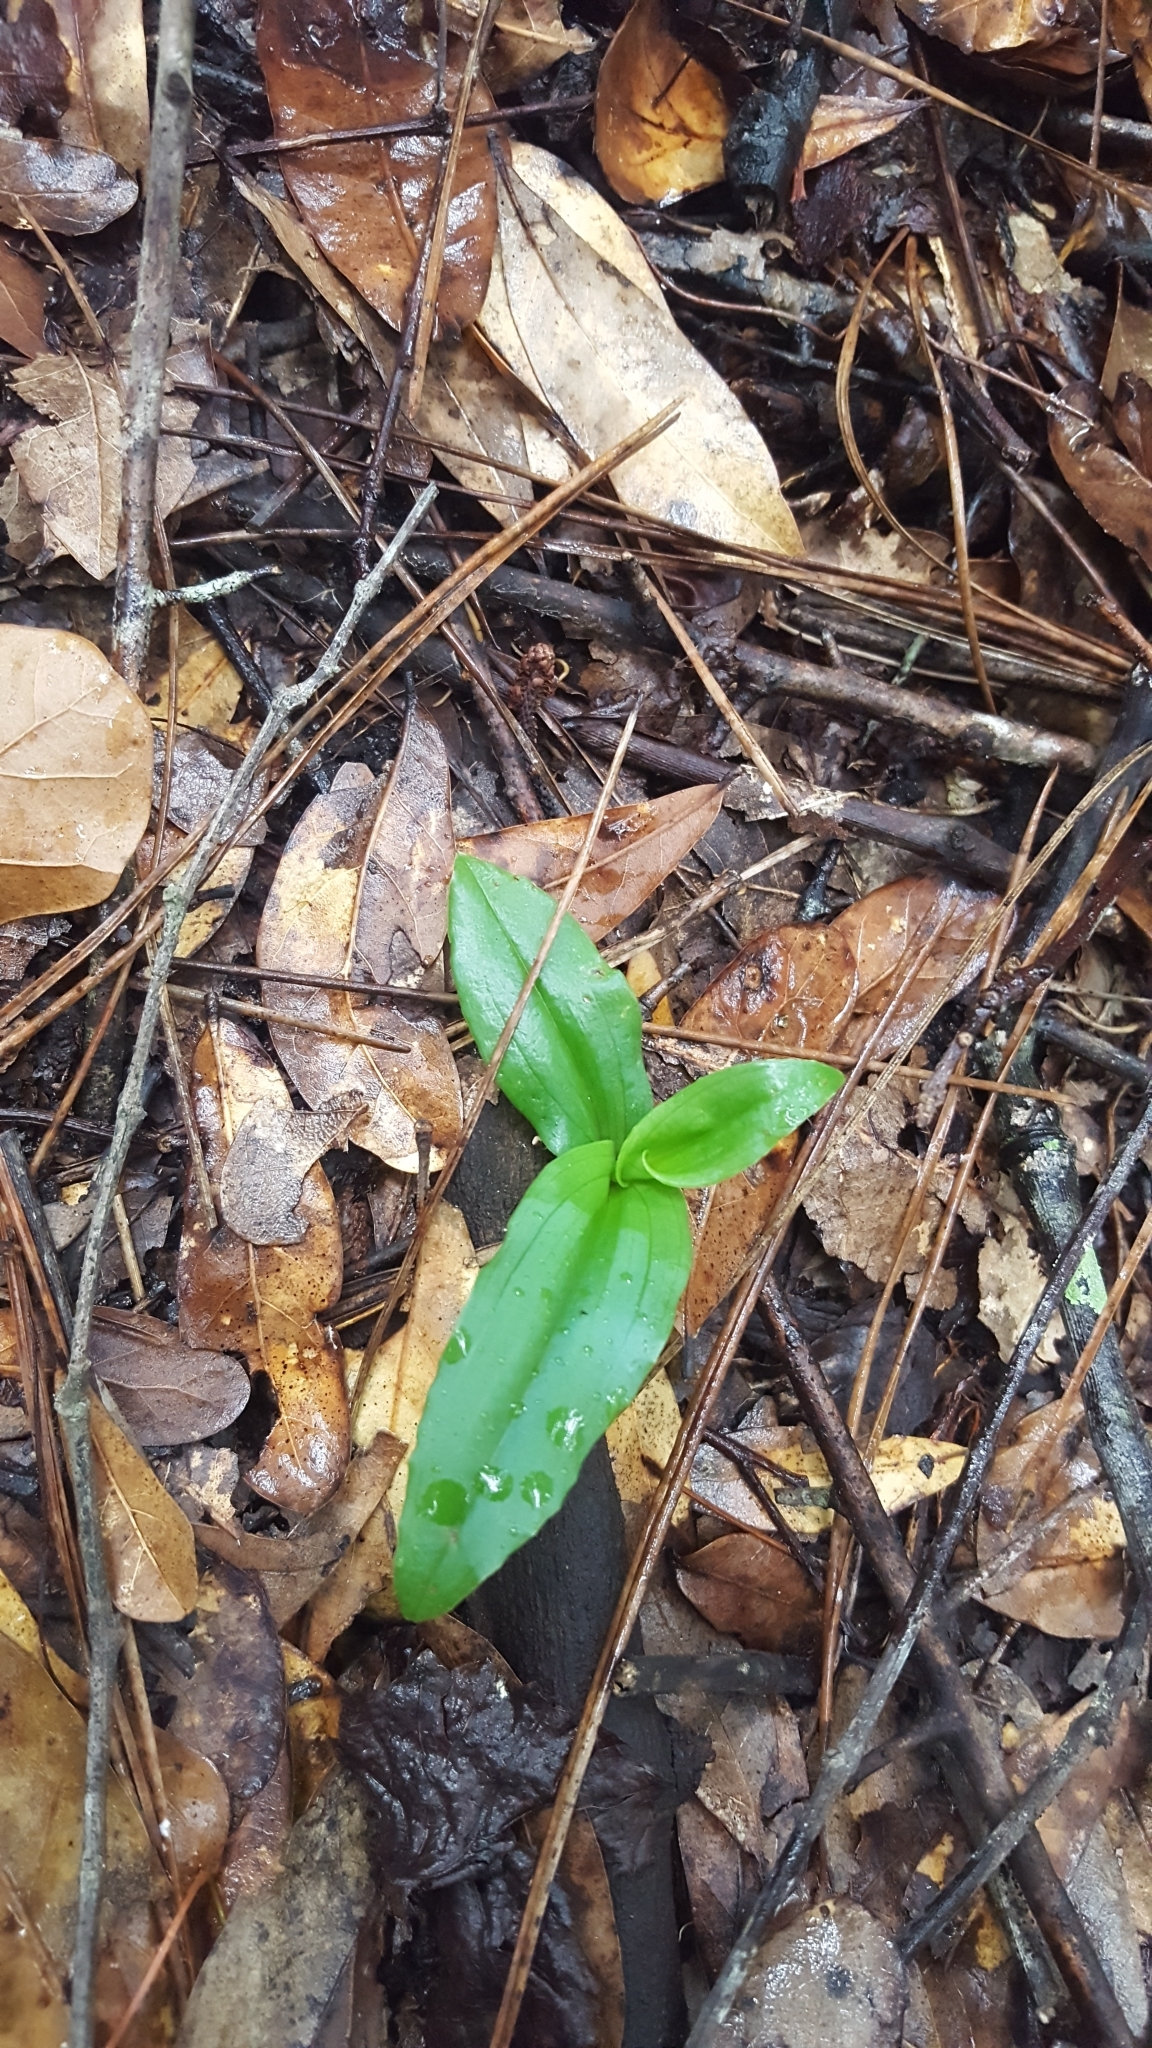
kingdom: Plantae
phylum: Tracheophyta
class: Liliopsida
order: Asparagales
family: Orchidaceae
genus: Habenaria
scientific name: Habenaria floribunda
